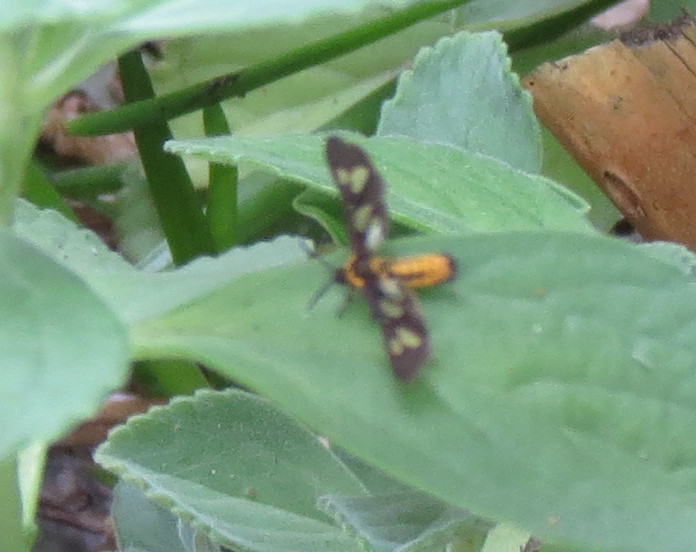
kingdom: Animalia
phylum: Arthropoda
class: Insecta
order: Lepidoptera
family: Erebidae
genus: Ceryx
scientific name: Ceryx fulvescens
